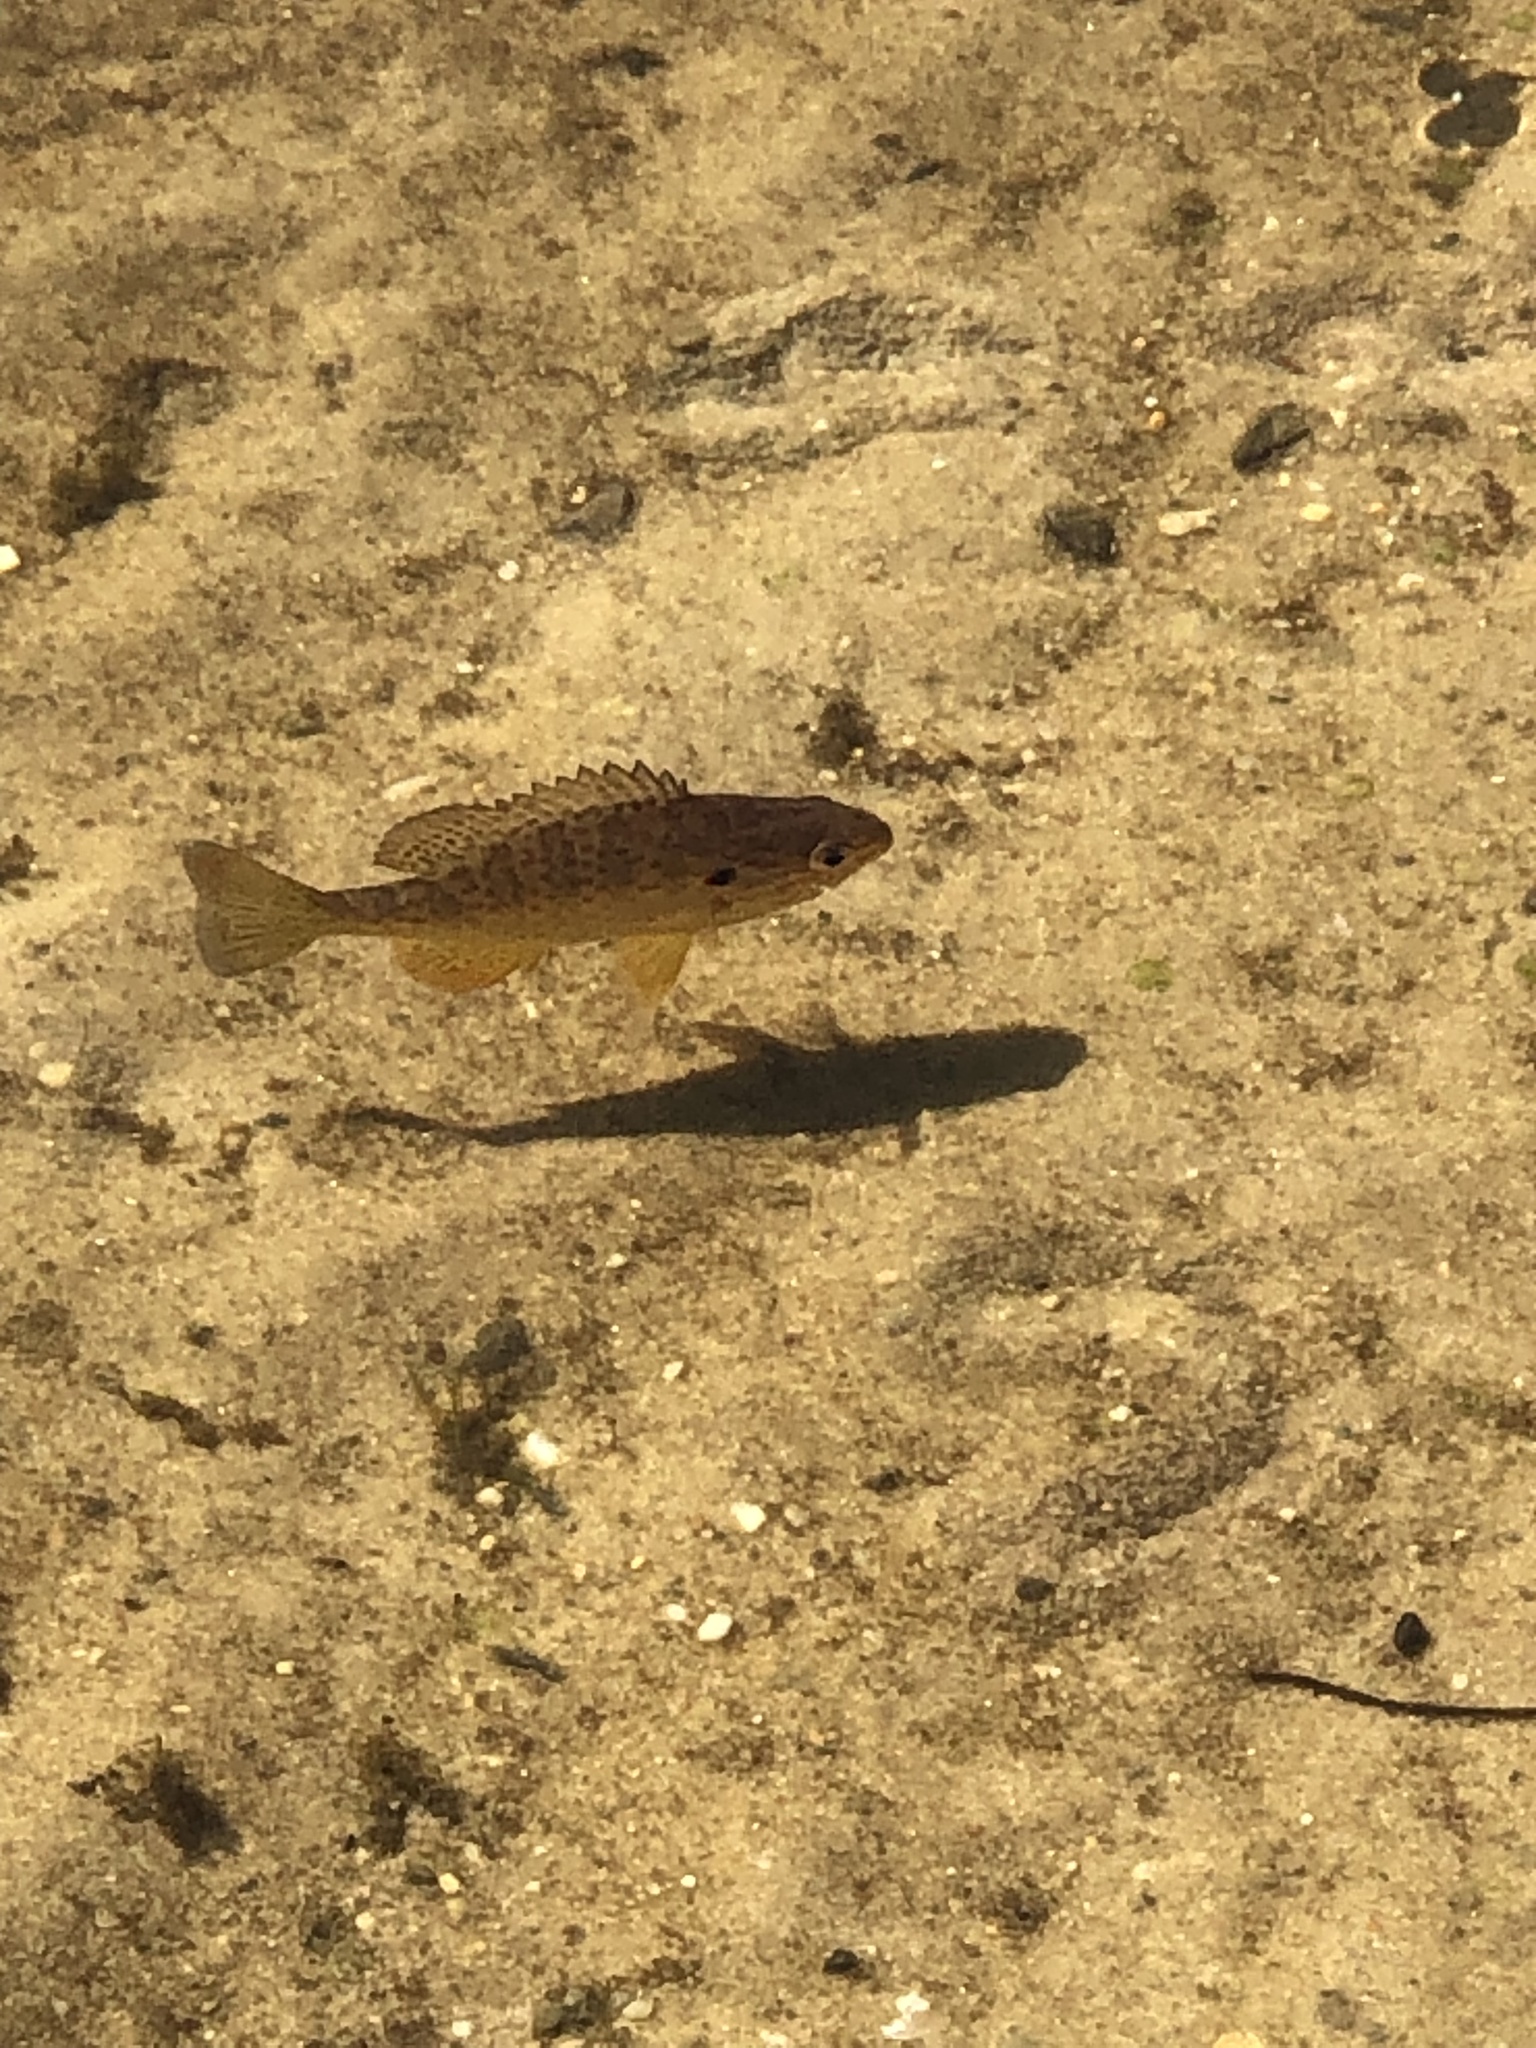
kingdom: Animalia
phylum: Chordata
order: Perciformes
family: Centrarchidae
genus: Lepomis
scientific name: Lepomis gibbosus
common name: Pumpkinseed
